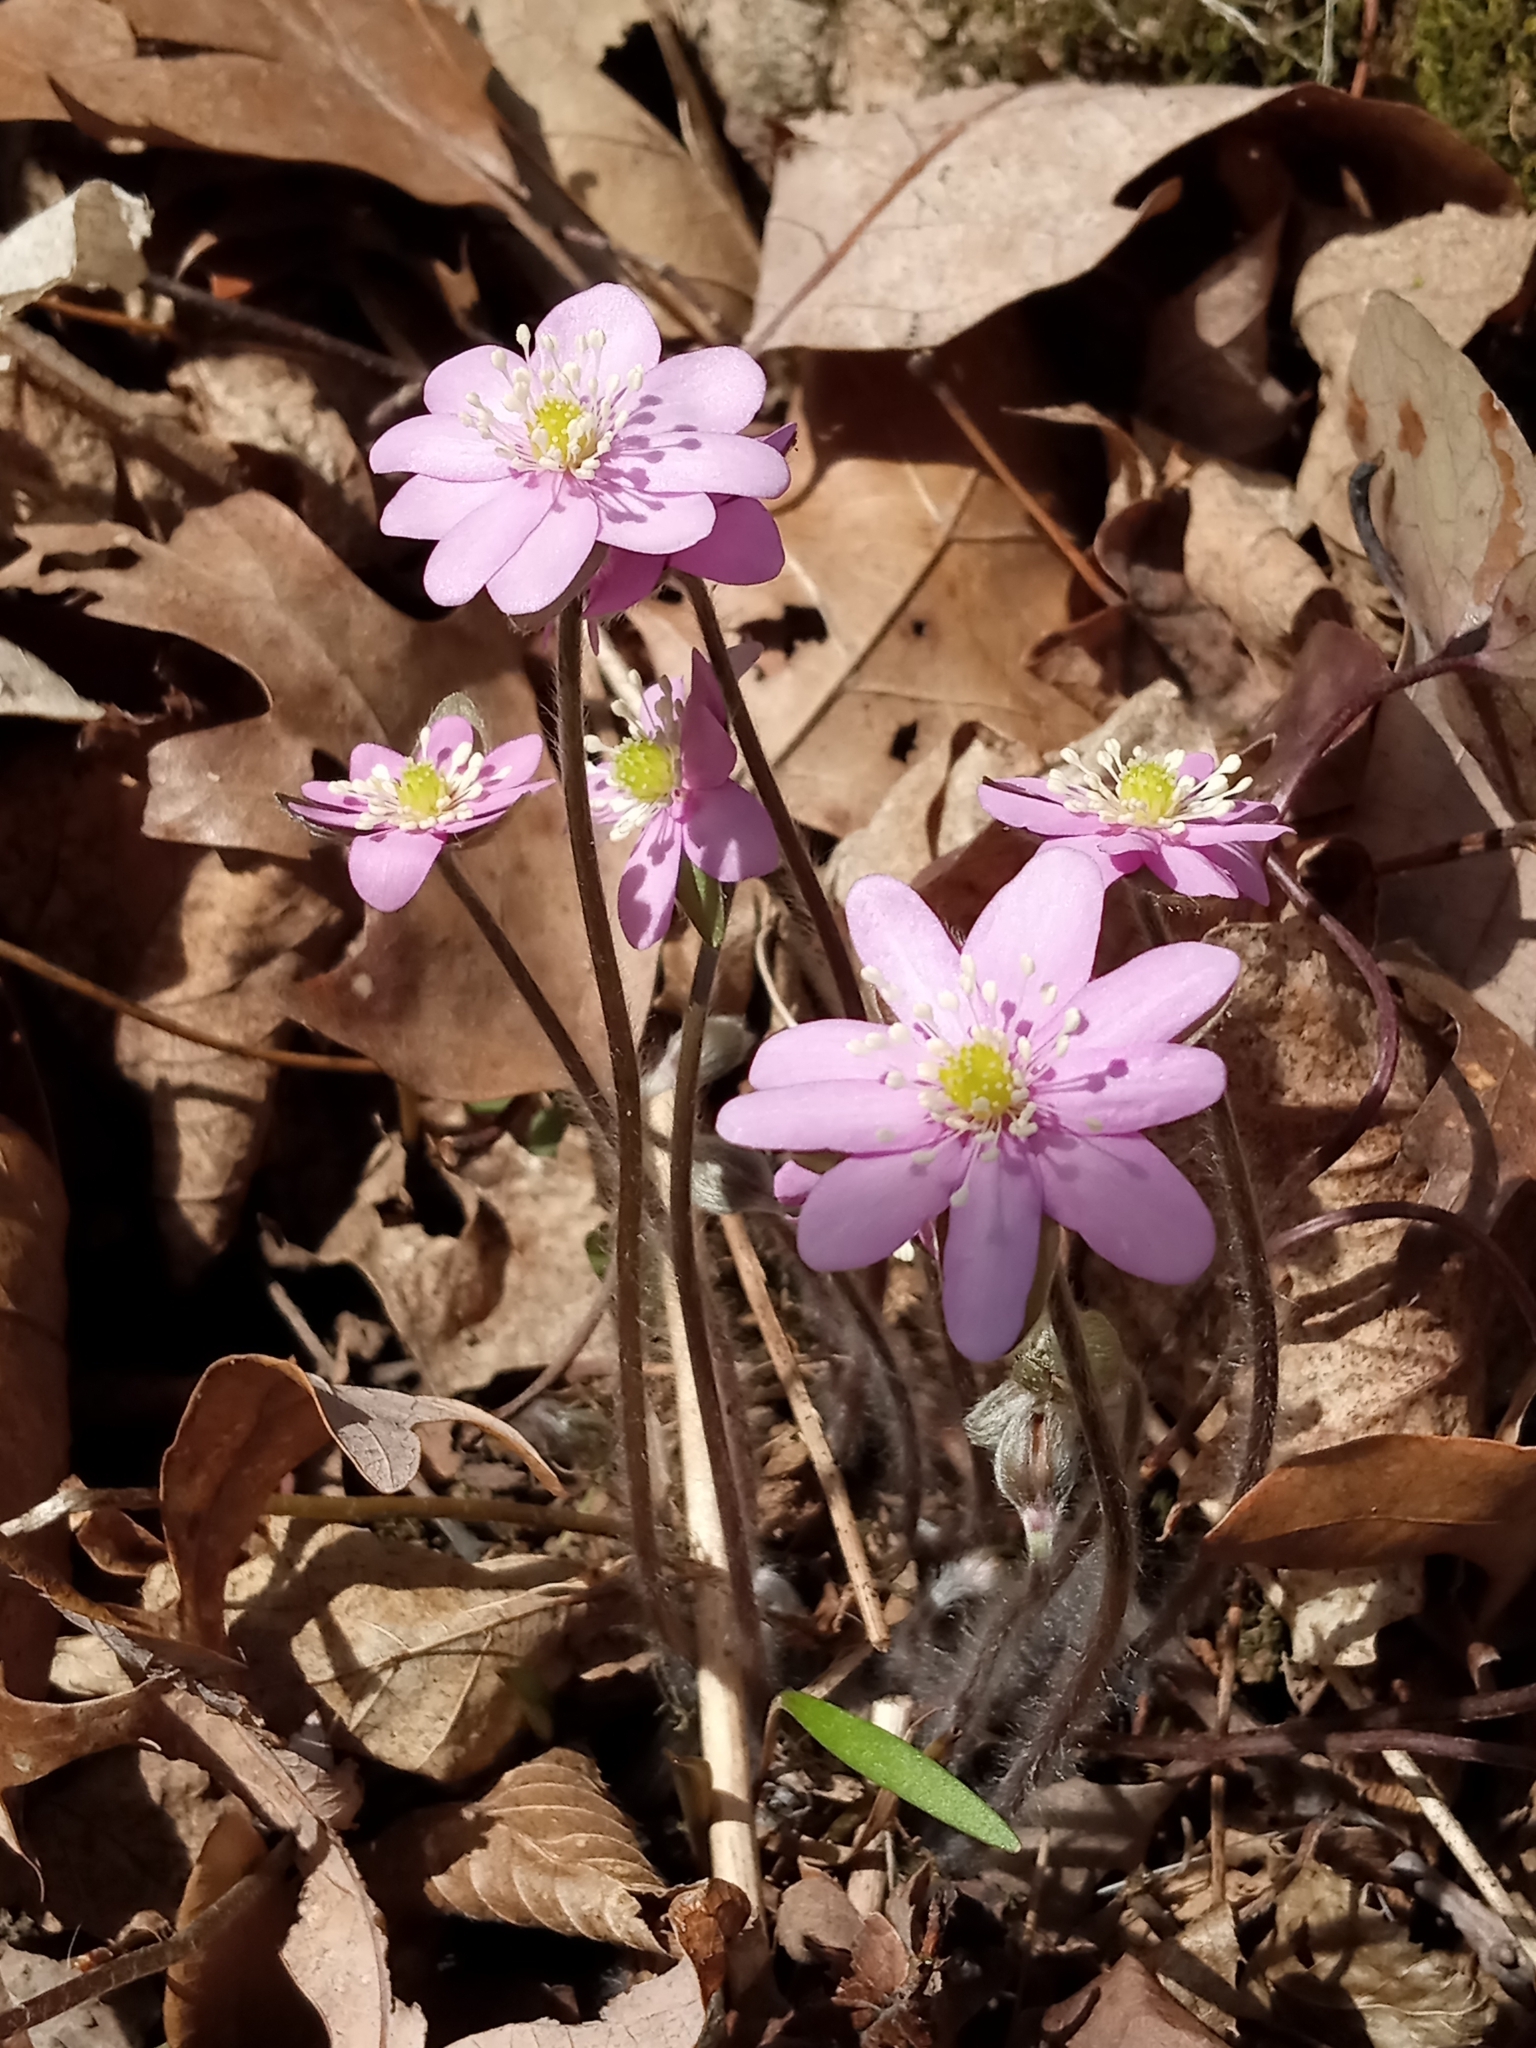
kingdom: Plantae
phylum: Tracheophyta
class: Magnoliopsida
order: Ranunculales
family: Ranunculaceae
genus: Hepatica
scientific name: Hepatica acutiloba
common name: Sharp-lobed hepatica
